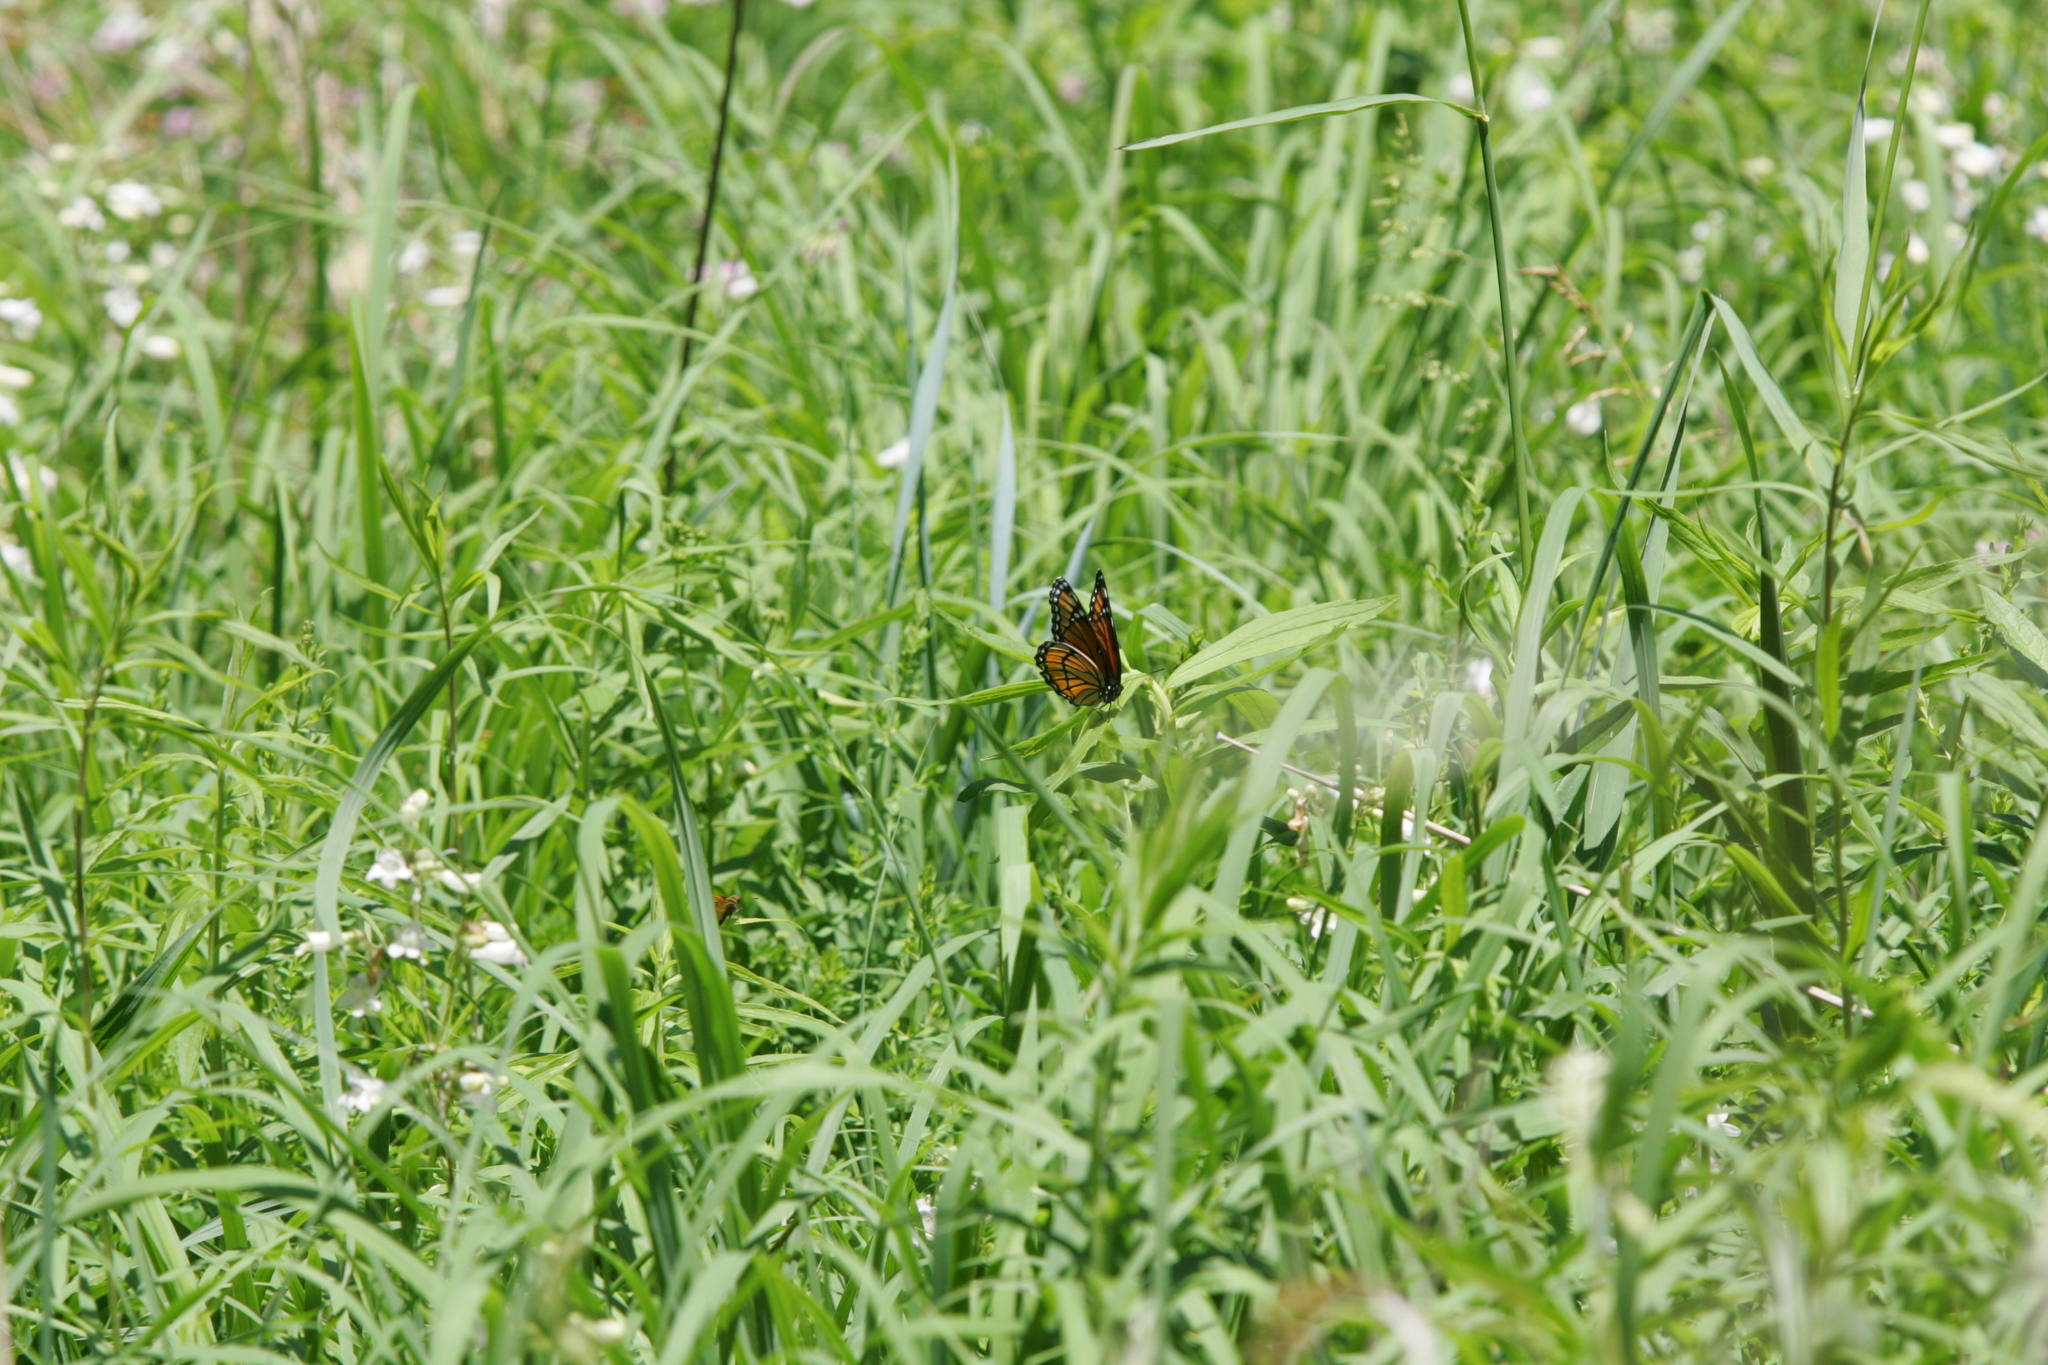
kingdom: Animalia
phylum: Arthropoda
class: Insecta
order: Lepidoptera
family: Nymphalidae
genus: Limenitis
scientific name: Limenitis archippus
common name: Viceroy
